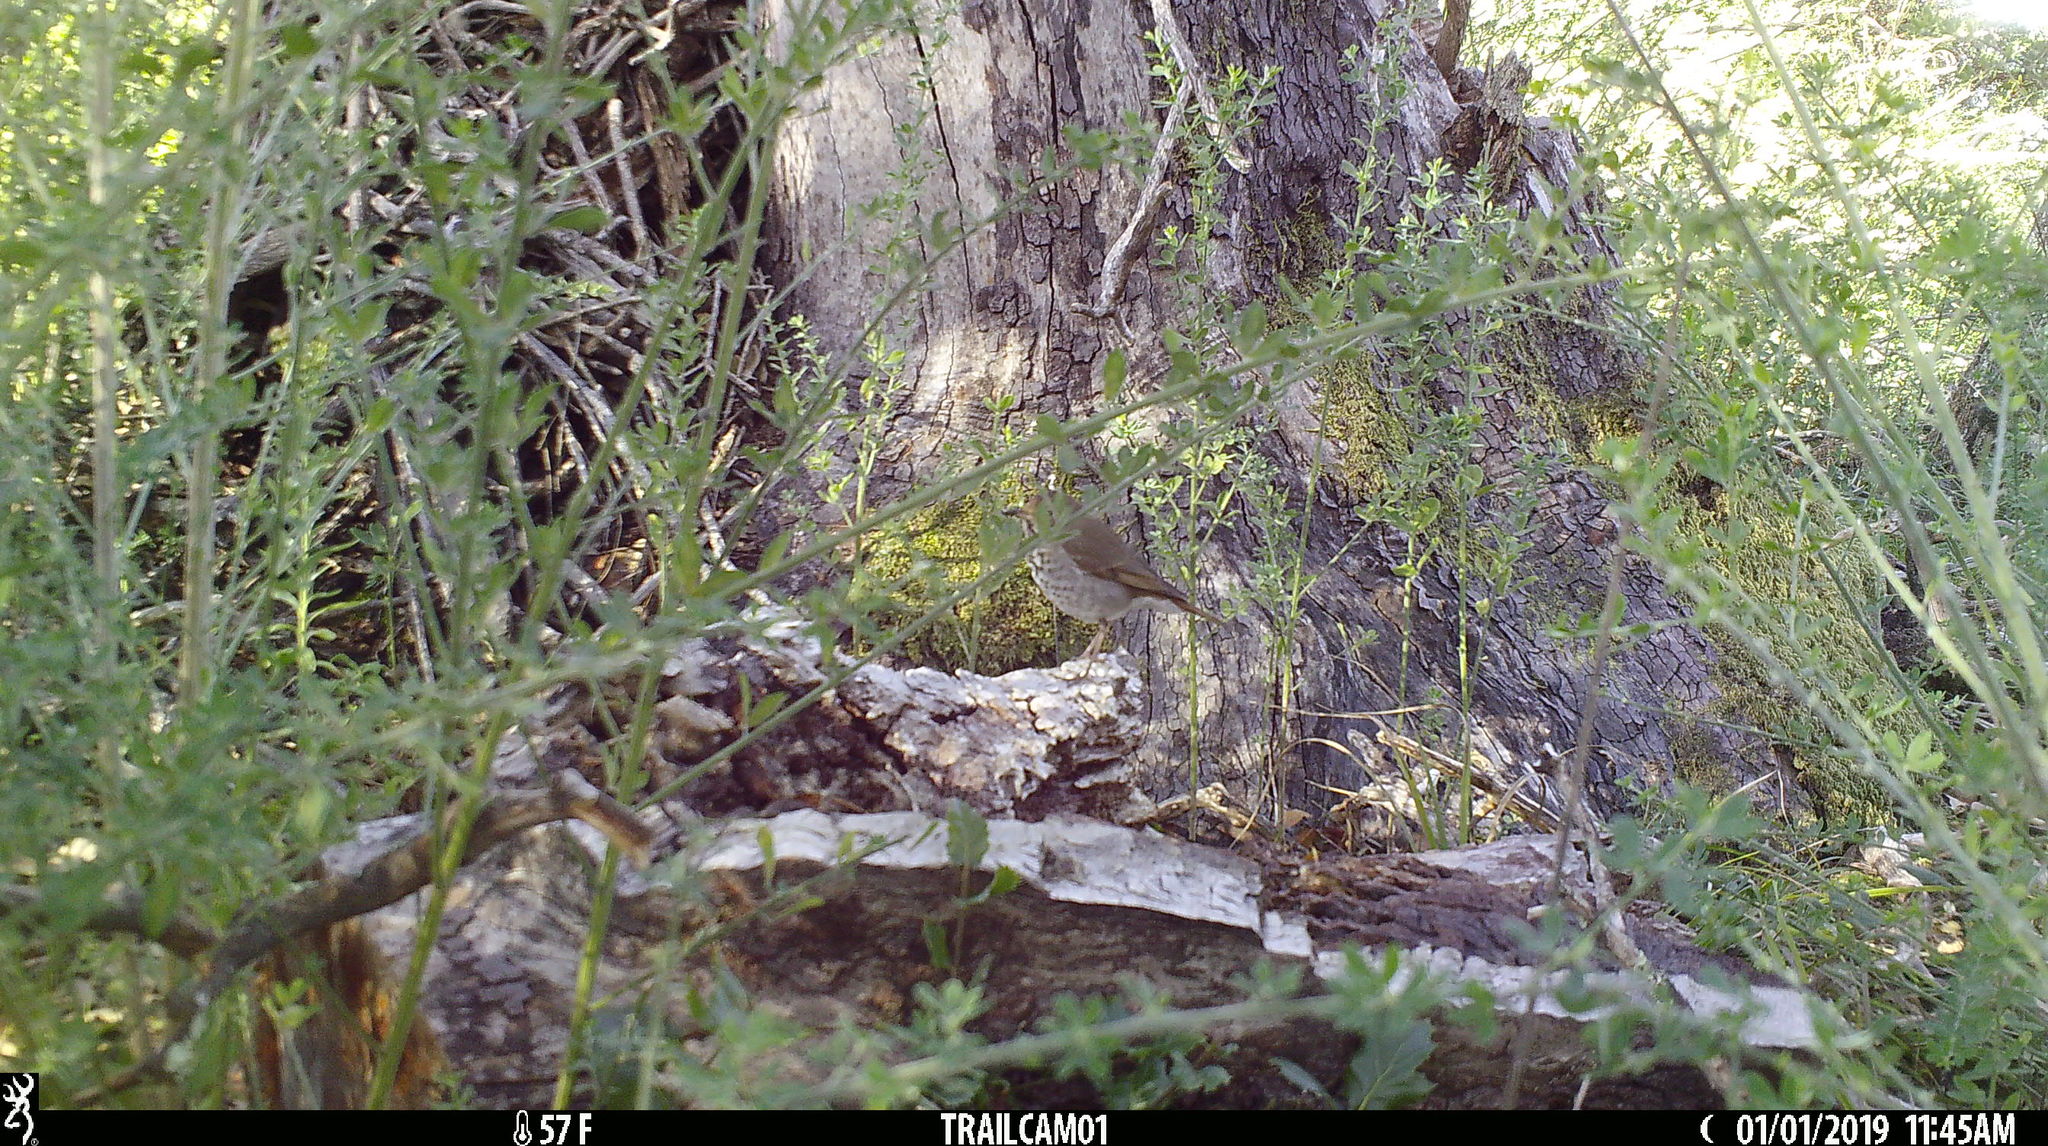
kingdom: Animalia
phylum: Chordata
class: Aves
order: Passeriformes
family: Turdidae
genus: Catharus
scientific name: Catharus guttatus
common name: Hermit thrush
